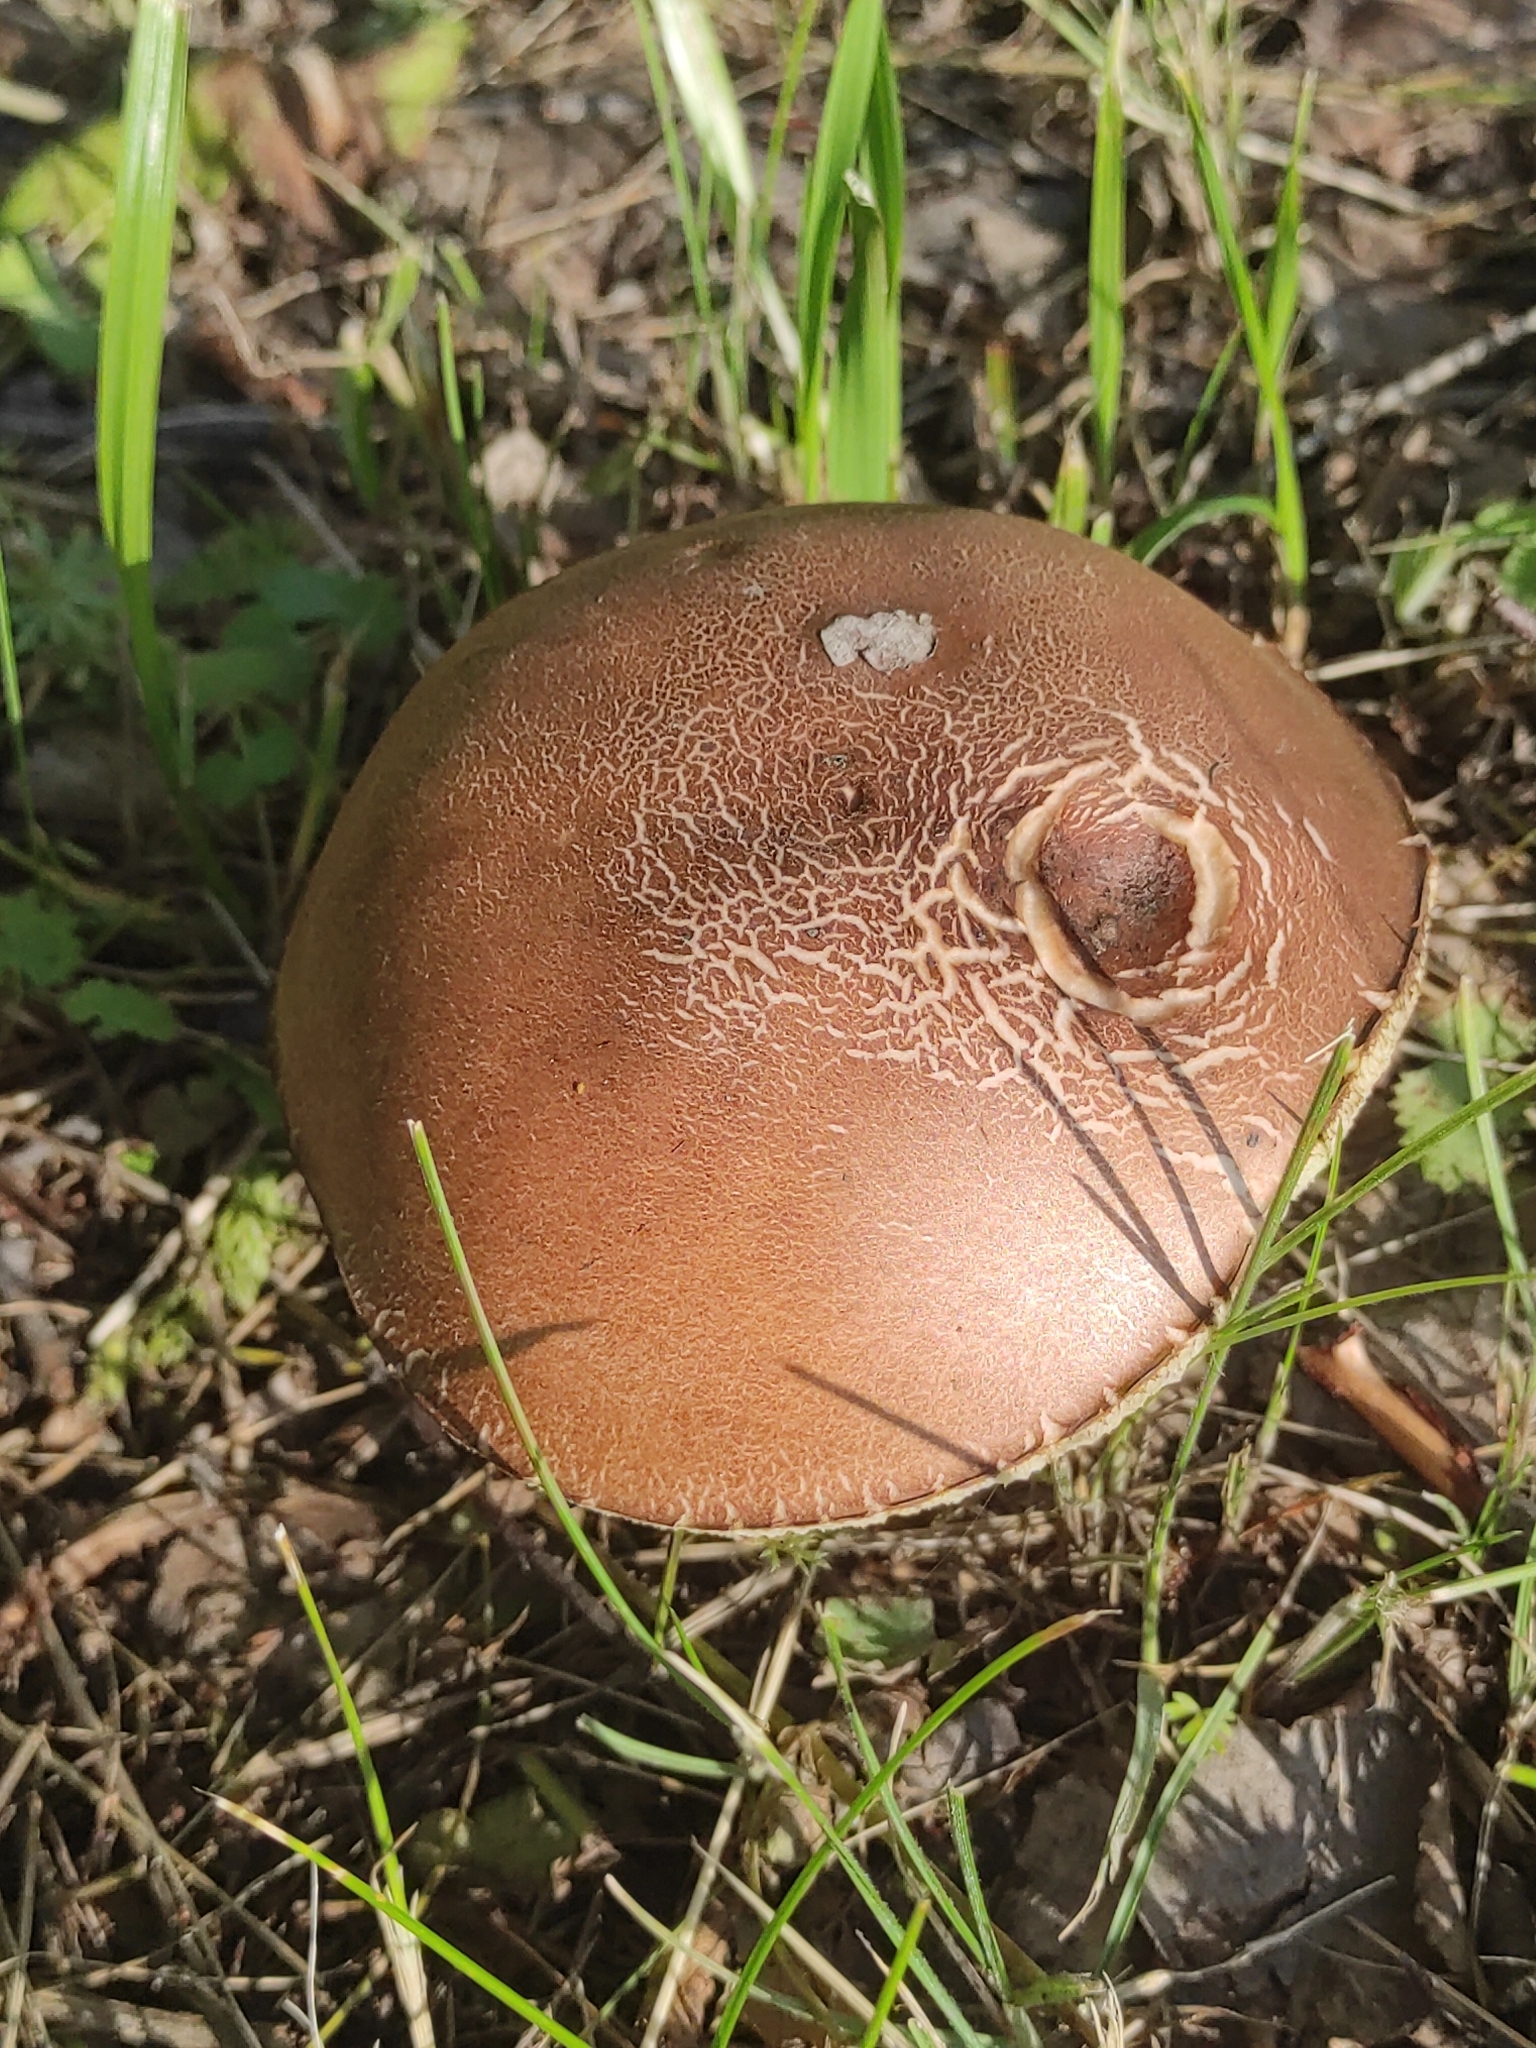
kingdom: Fungi
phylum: Basidiomycota
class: Agaricomycetes
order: Boletales
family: Boletaceae
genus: Leccinum
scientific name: Leccinum scabrum
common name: Blushing bolete
